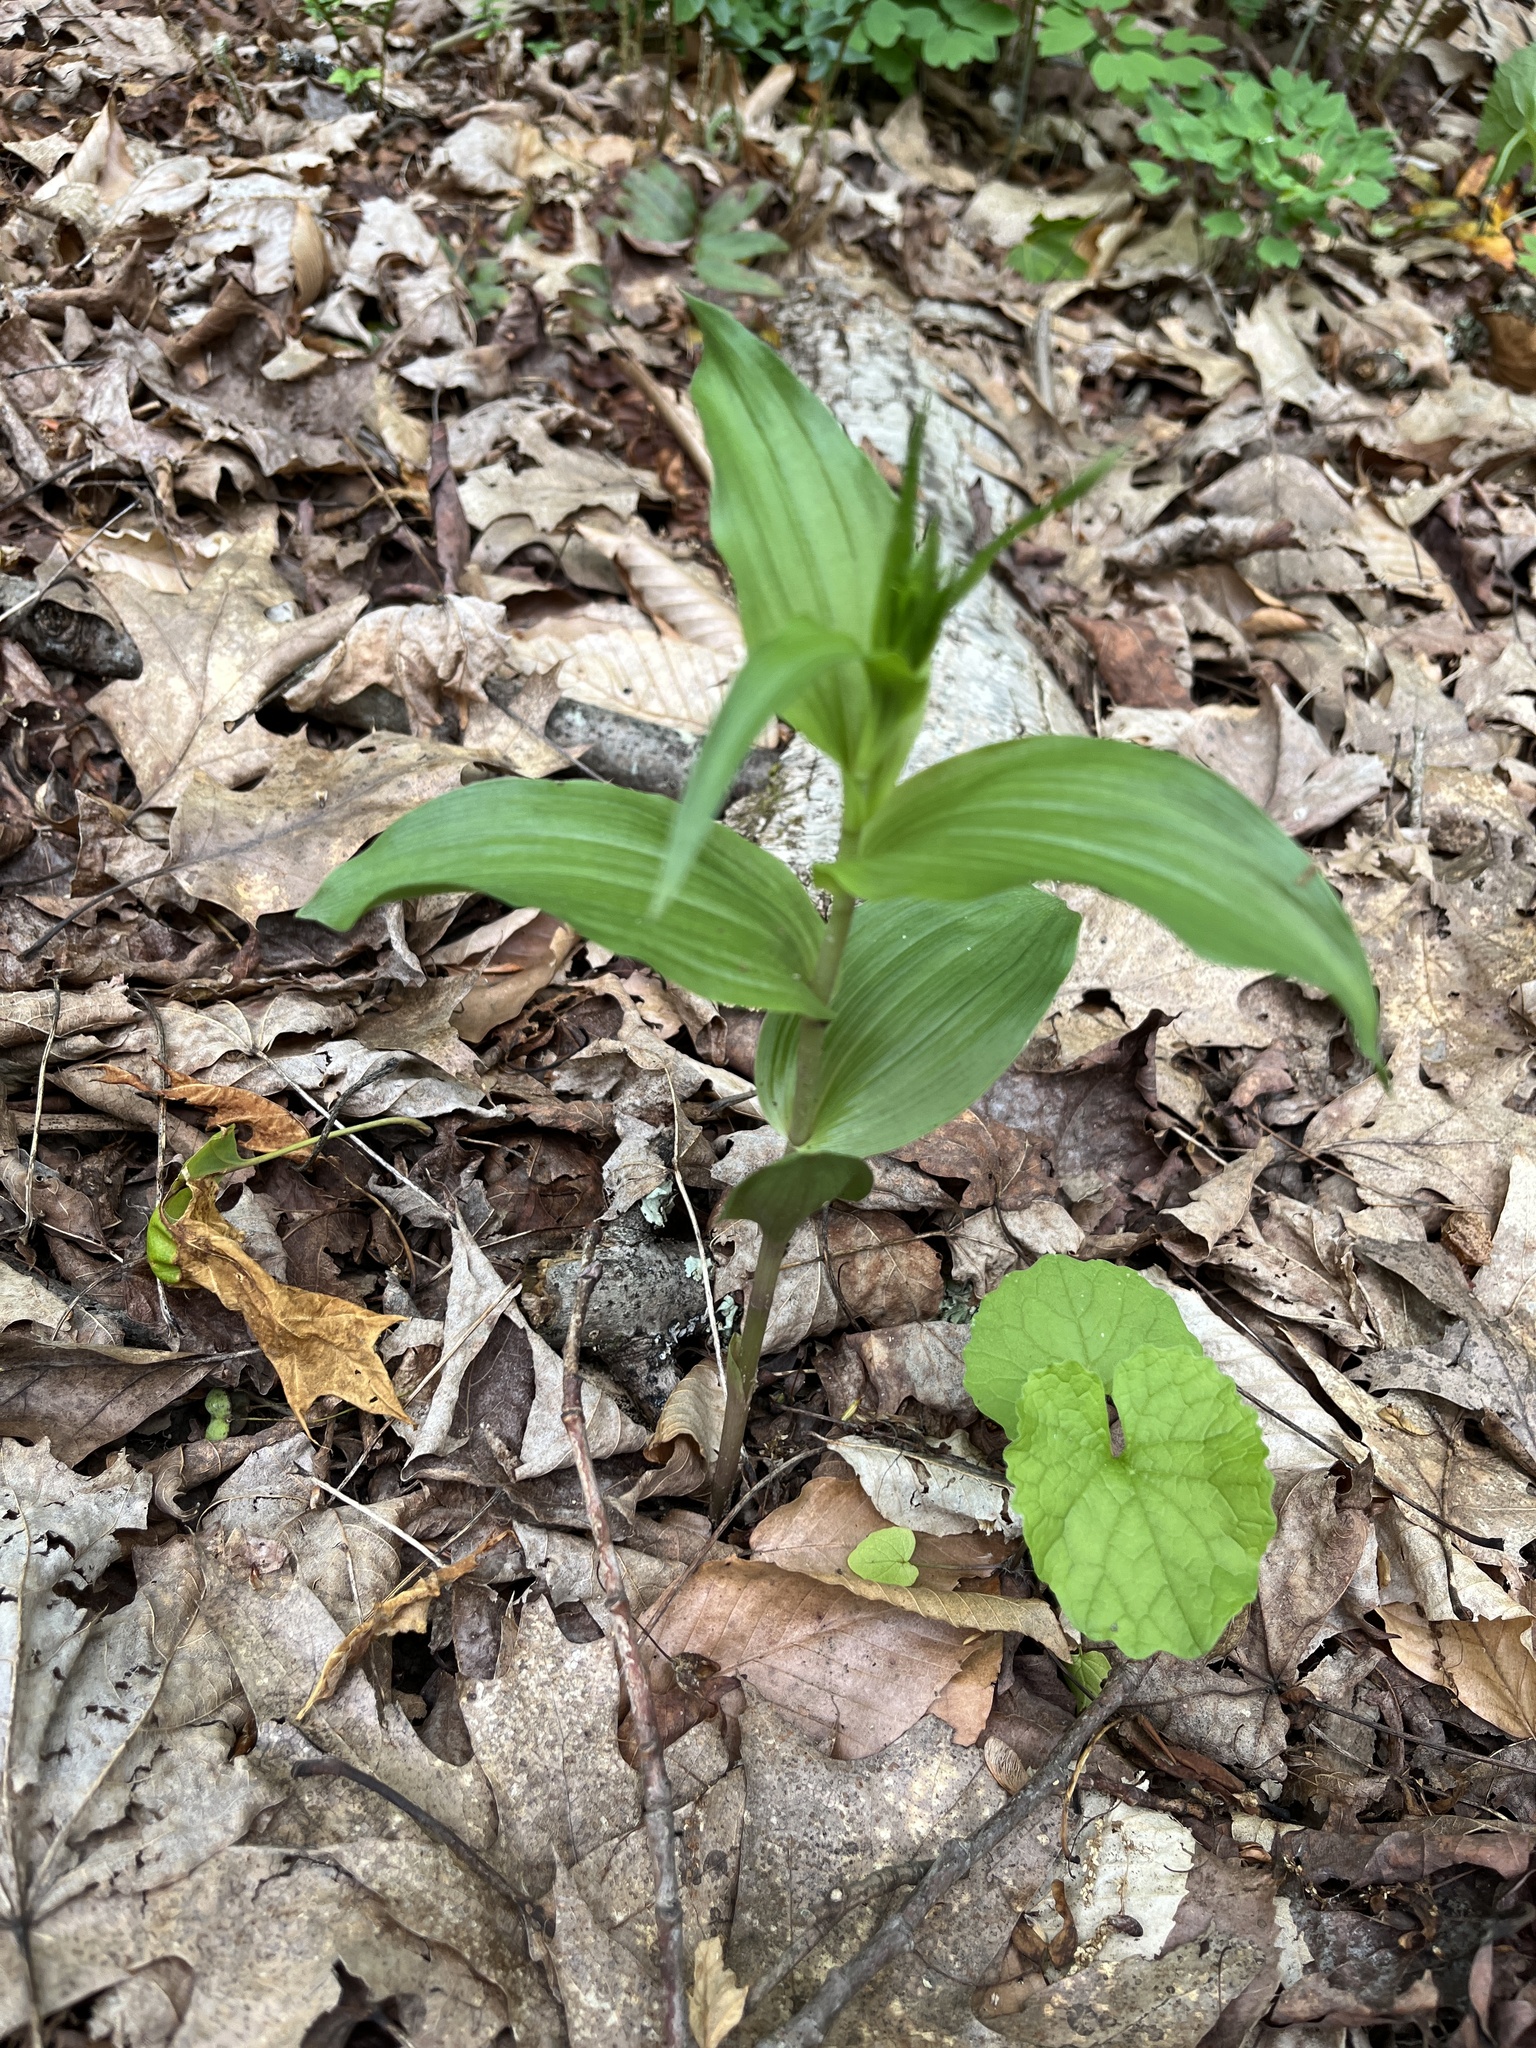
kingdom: Plantae
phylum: Tracheophyta
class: Liliopsida
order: Asparagales
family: Orchidaceae
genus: Epipactis
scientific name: Epipactis helleborine
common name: Broad-leaved helleborine
